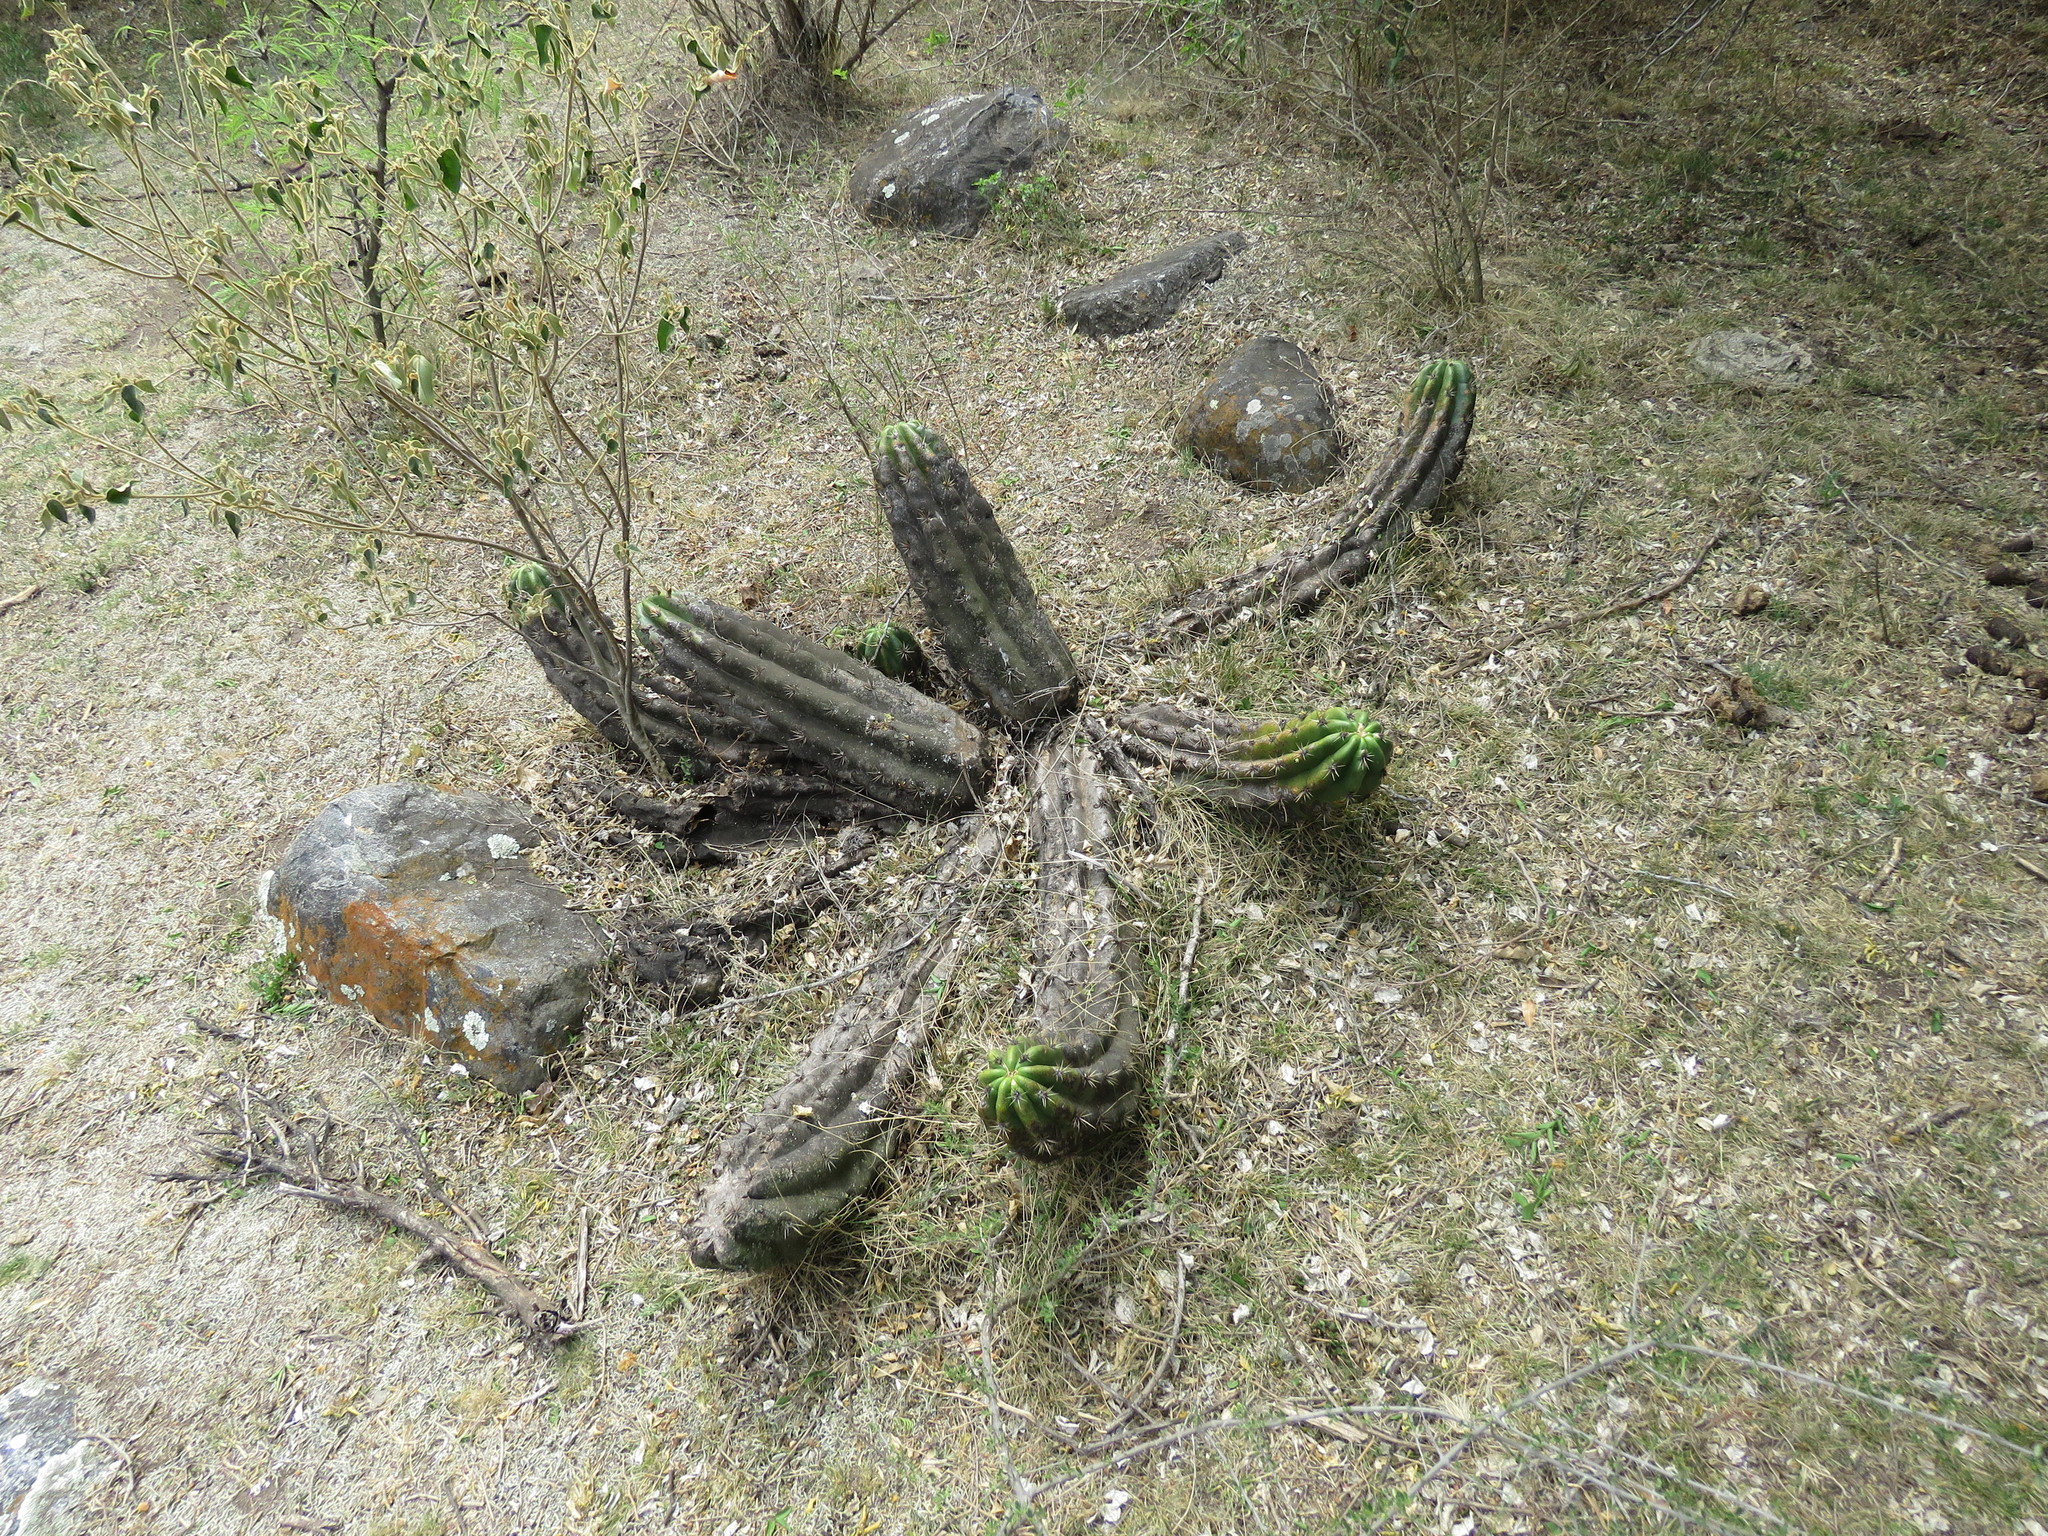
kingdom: Plantae
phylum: Tracheophyta
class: Magnoliopsida
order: Caryophyllales
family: Cactaceae
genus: Soehrensia
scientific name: Soehrensia candicans
